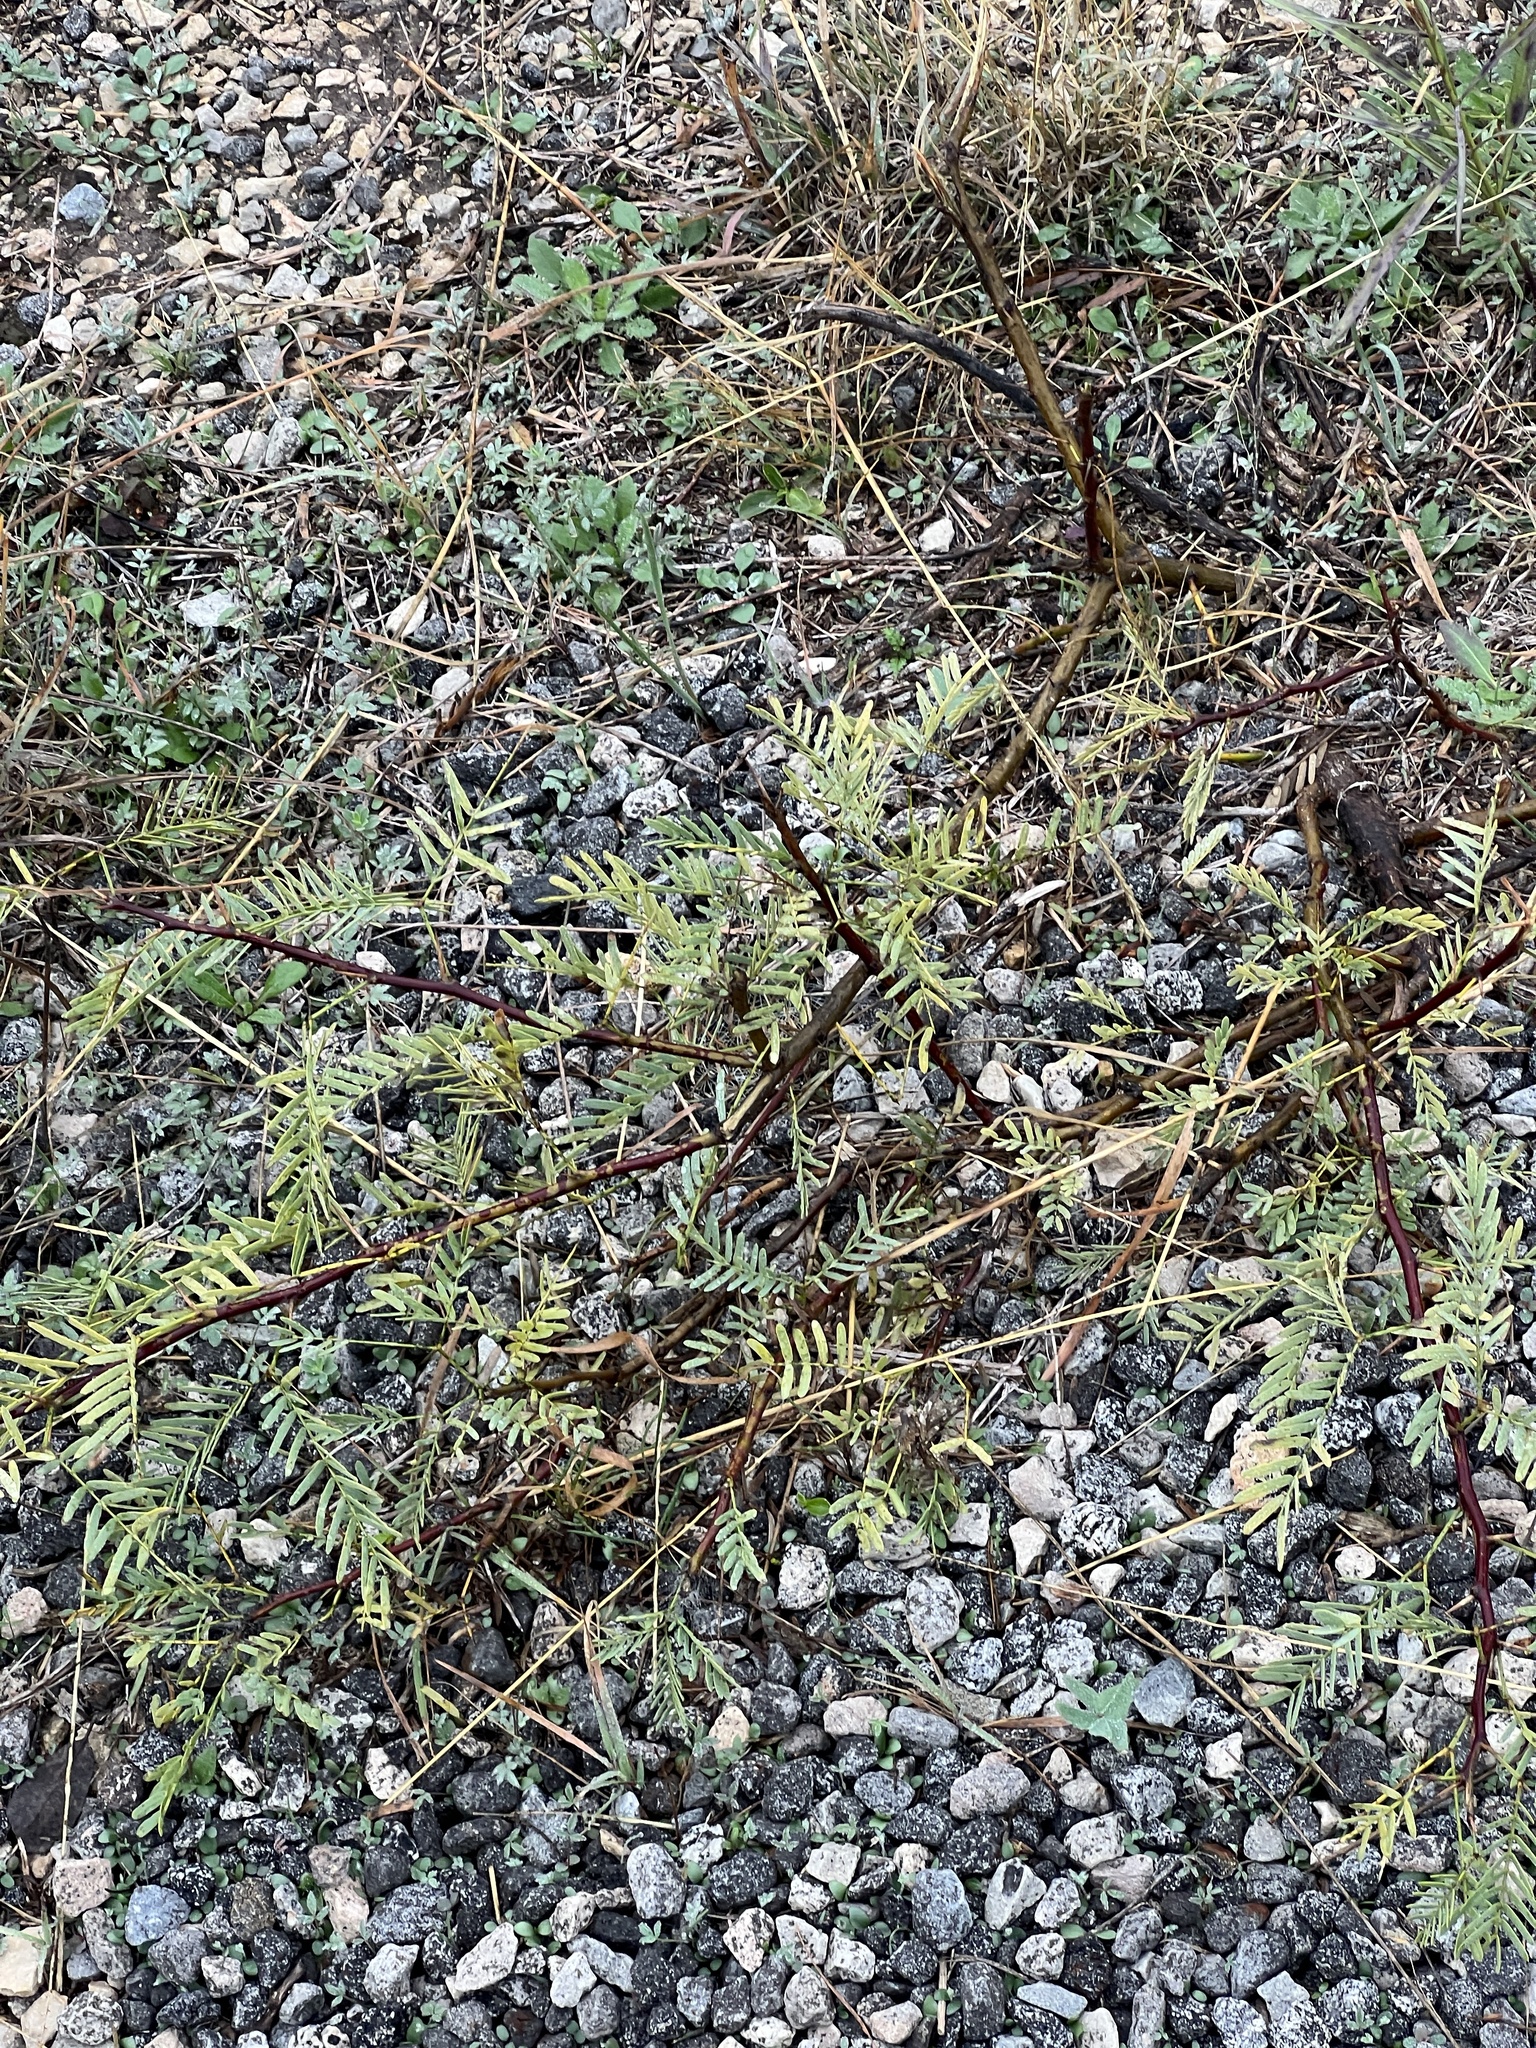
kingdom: Plantae
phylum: Tracheophyta
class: Magnoliopsida
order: Fabales
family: Fabaceae
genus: Prosopis
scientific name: Prosopis glandulosa
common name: Honey mesquite
